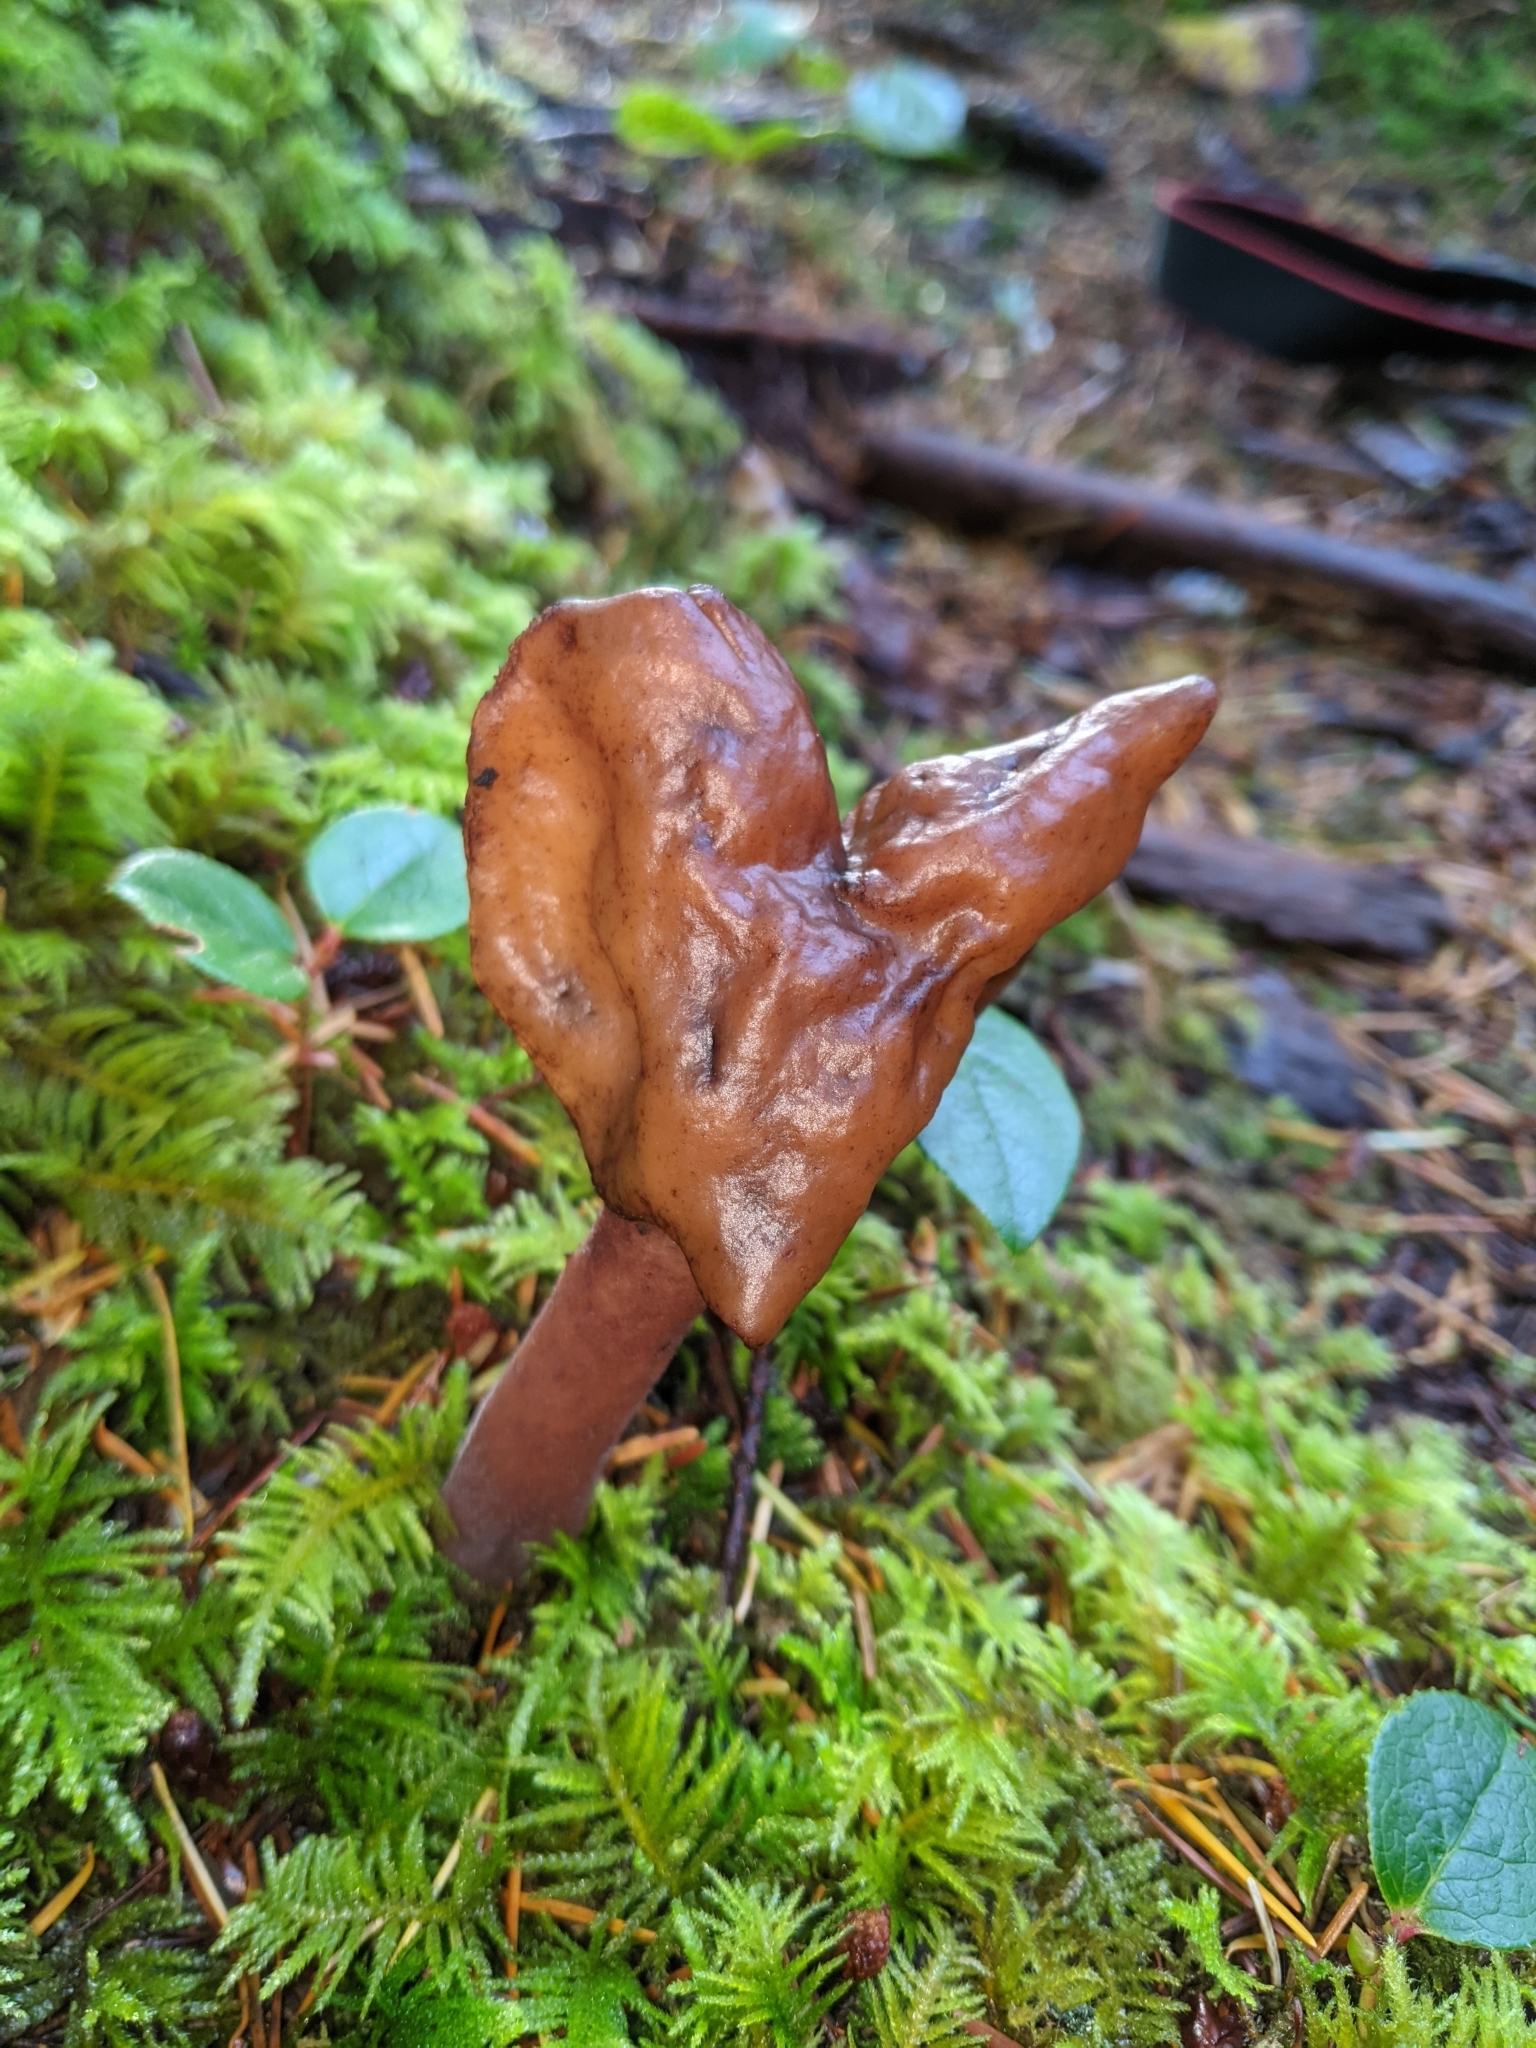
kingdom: Fungi
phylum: Ascomycota
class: Pezizomycetes
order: Pezizales
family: Discinaceae
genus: Gyromitra
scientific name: Gyromitra infula
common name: Pouched false morel
